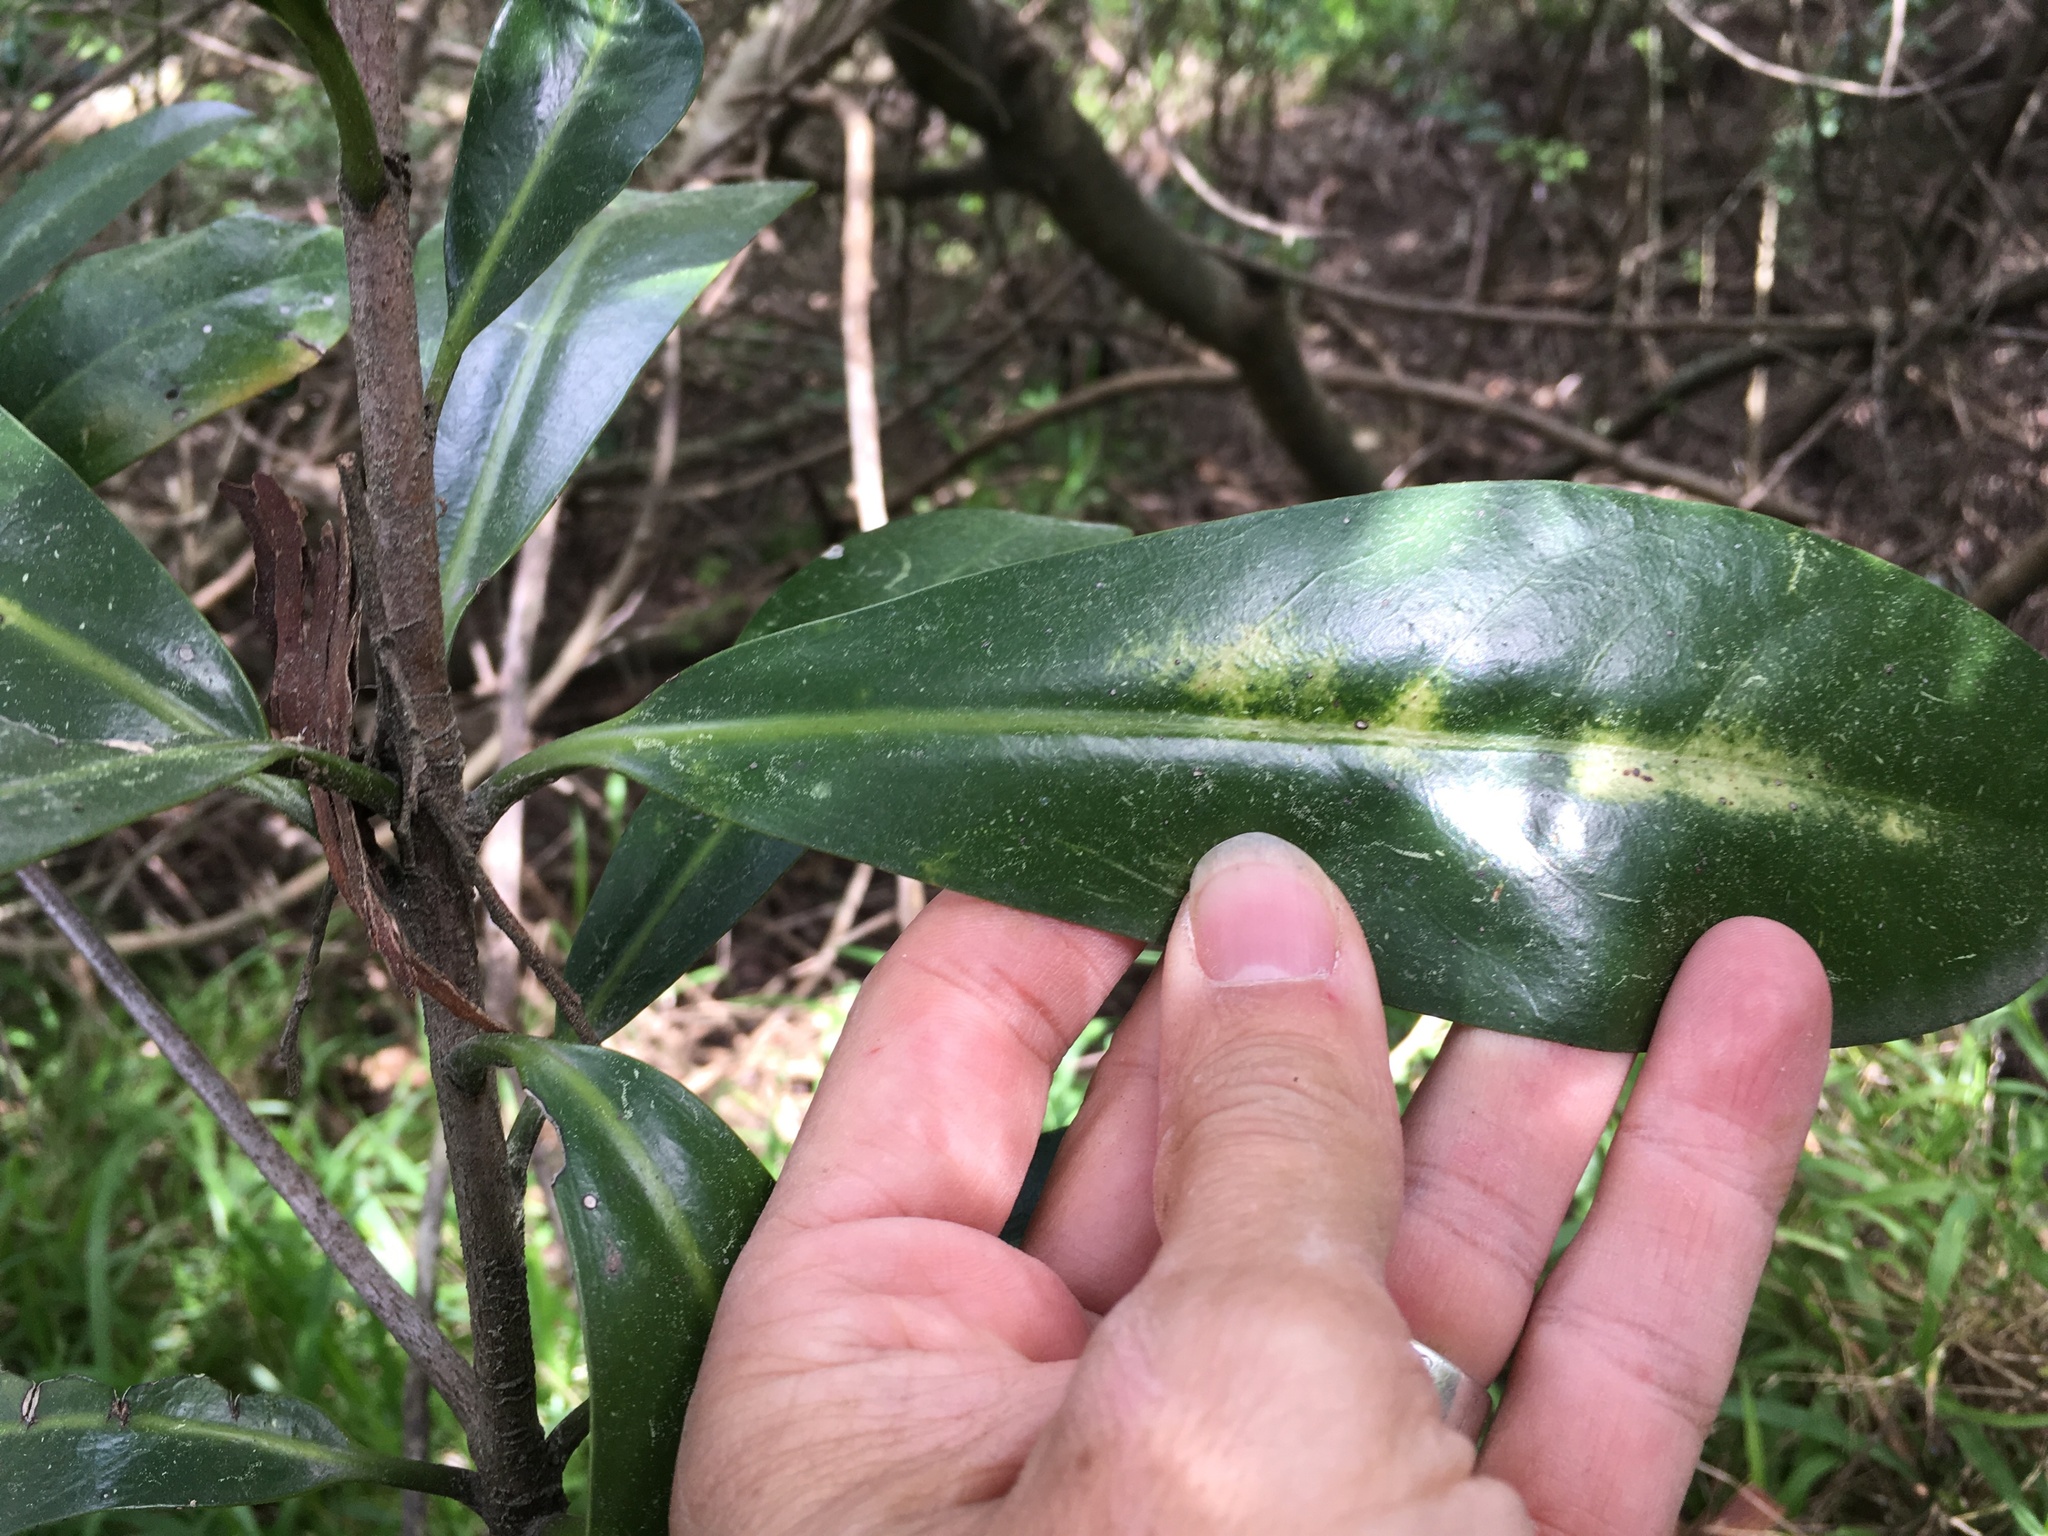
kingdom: Plantae
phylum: Tracheophyta
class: Magnoliopsida
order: Cucurbitales
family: Corynocarpaceae
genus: Corynocarpus
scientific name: Corynocarpus laevigatus
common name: New zealand laurel
